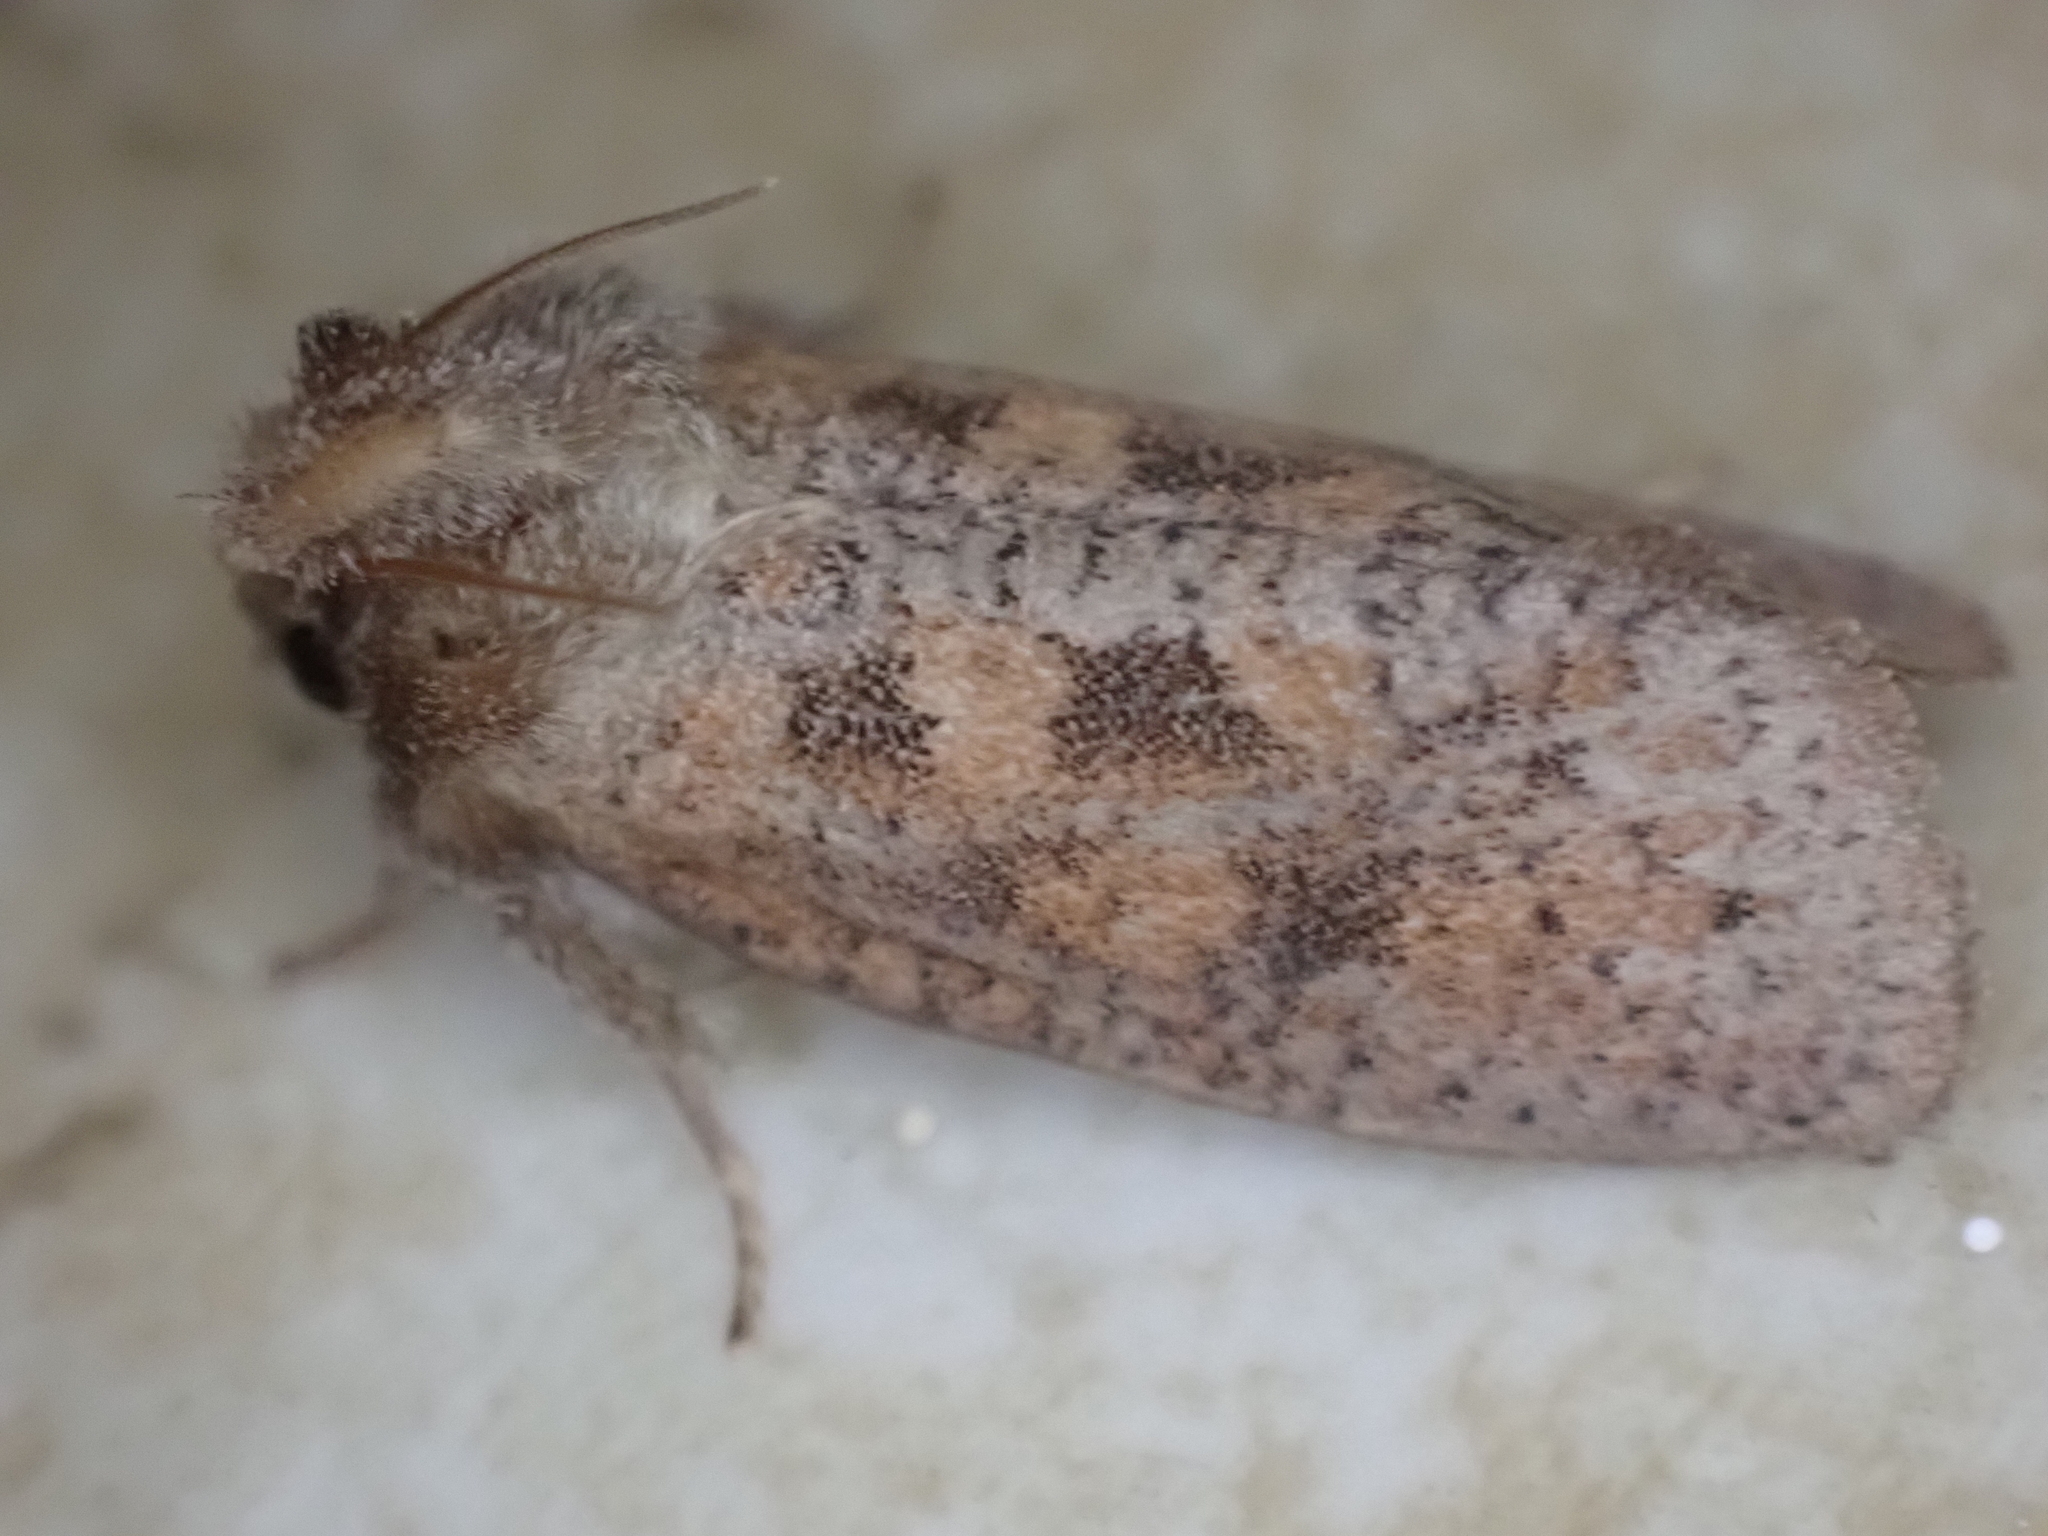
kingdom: Animalia
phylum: Arthropoda
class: Insecta
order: Lepidoptera
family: Tineidae
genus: Acrolophus
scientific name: Acrolophus plumifrontella
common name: Eastern grass tubeworm moth
